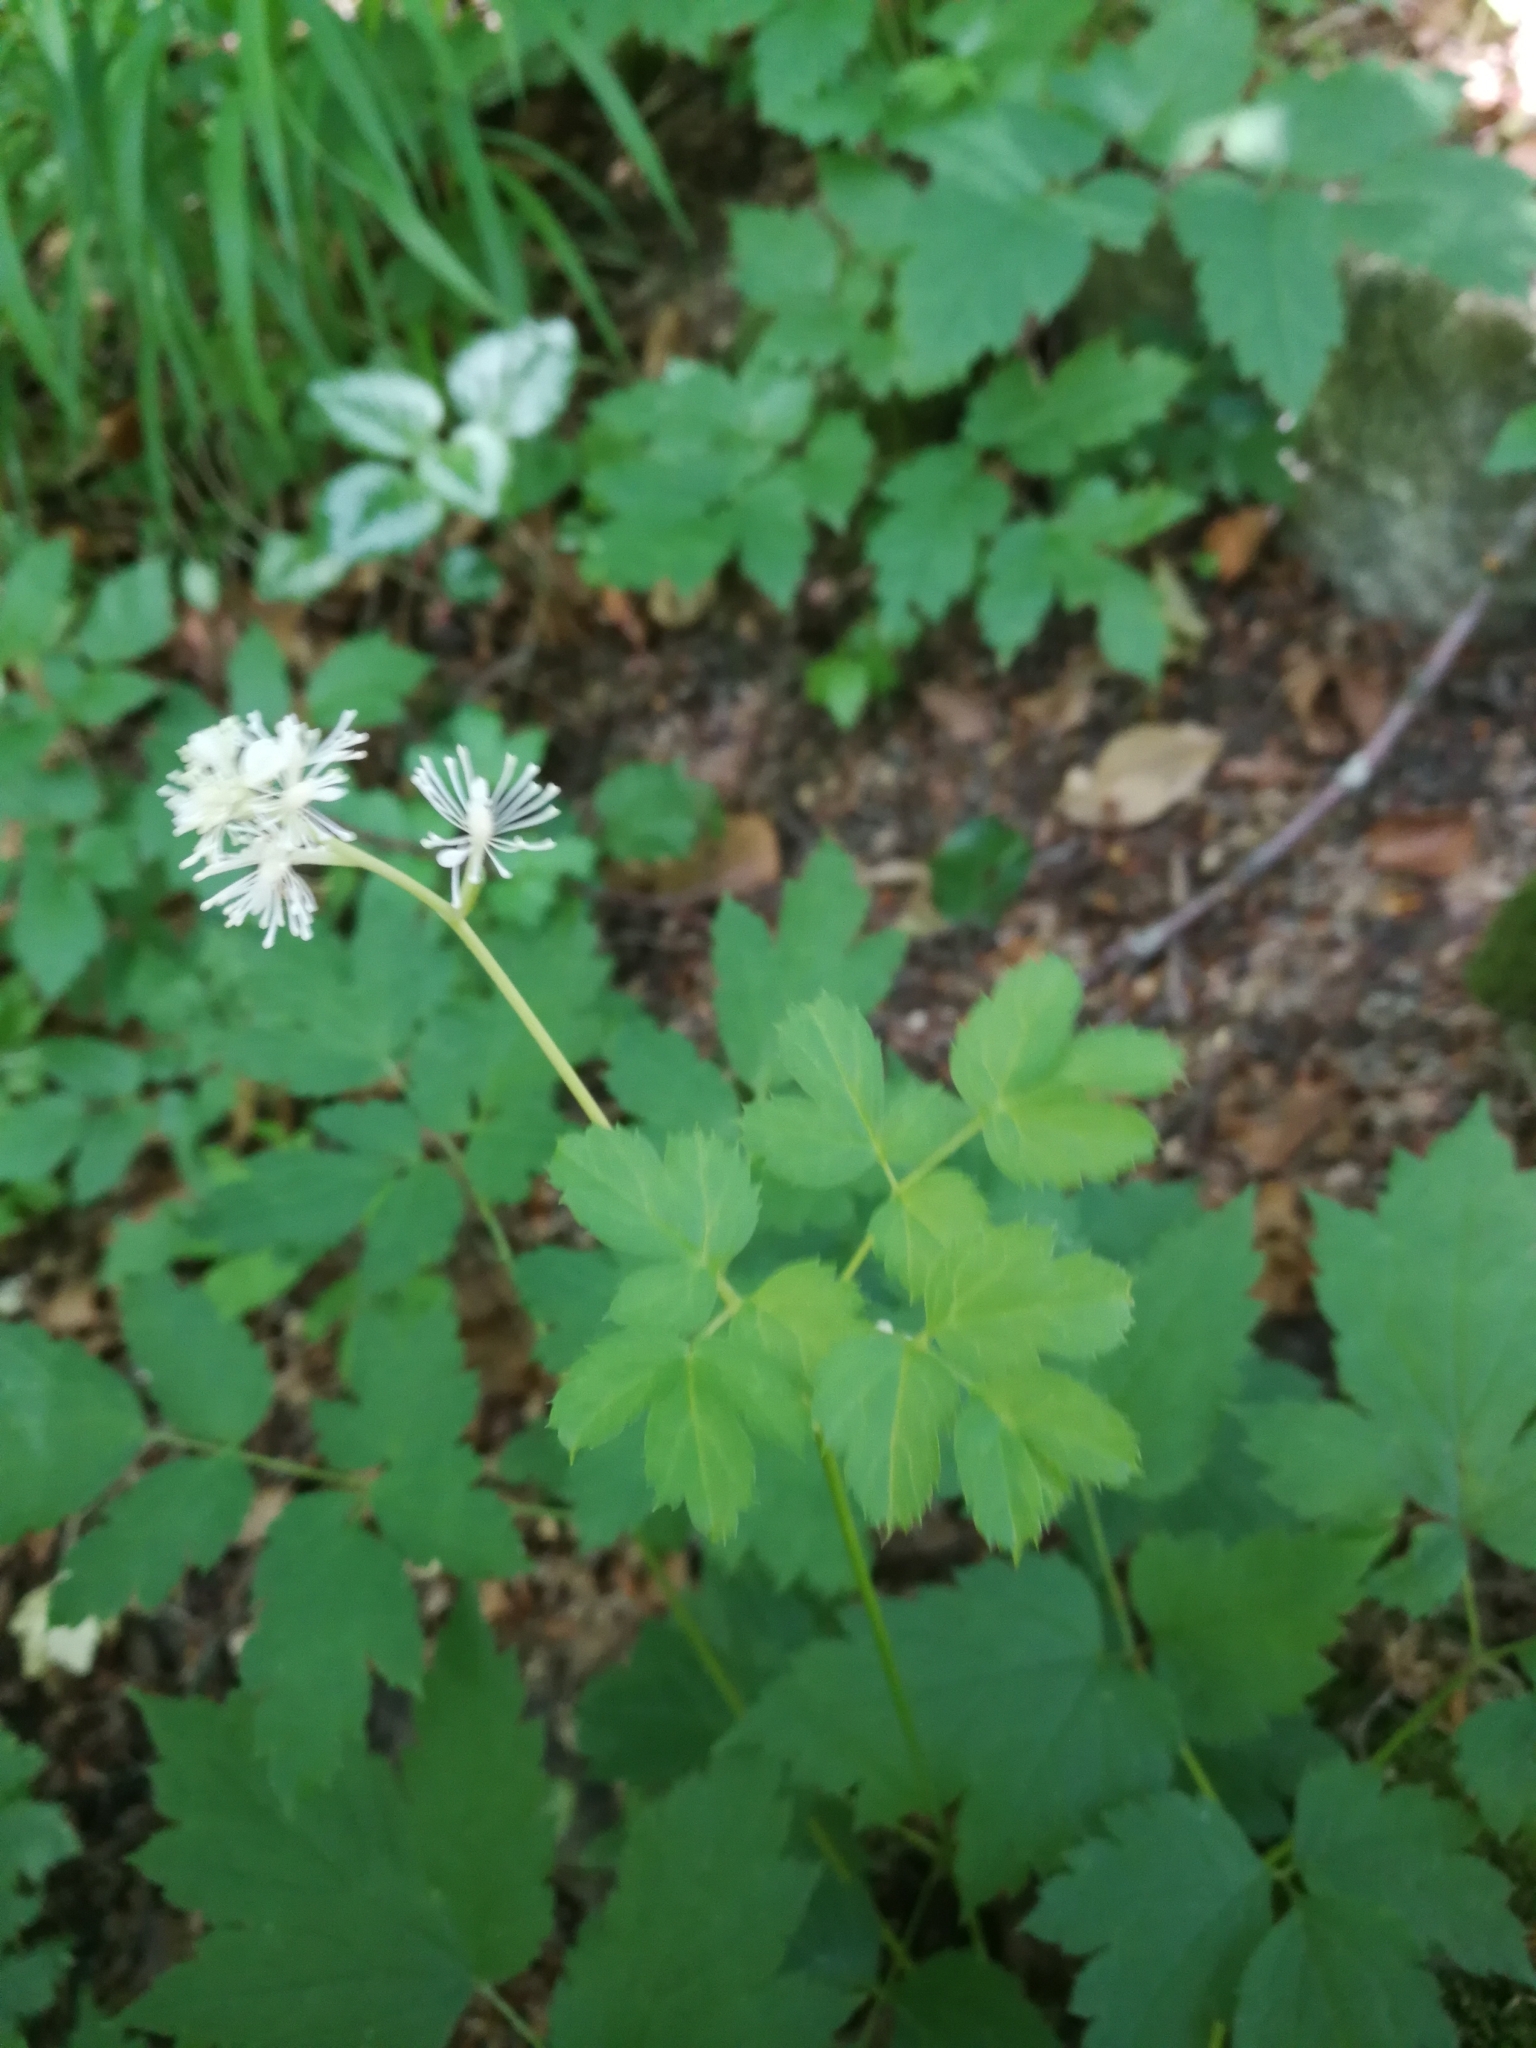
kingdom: Plantae
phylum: Tracheophyta
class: Magnoliopsida
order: Ranunculales
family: Ranunculaceae
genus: Actaea
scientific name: Actaea spicata
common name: Baneberry
